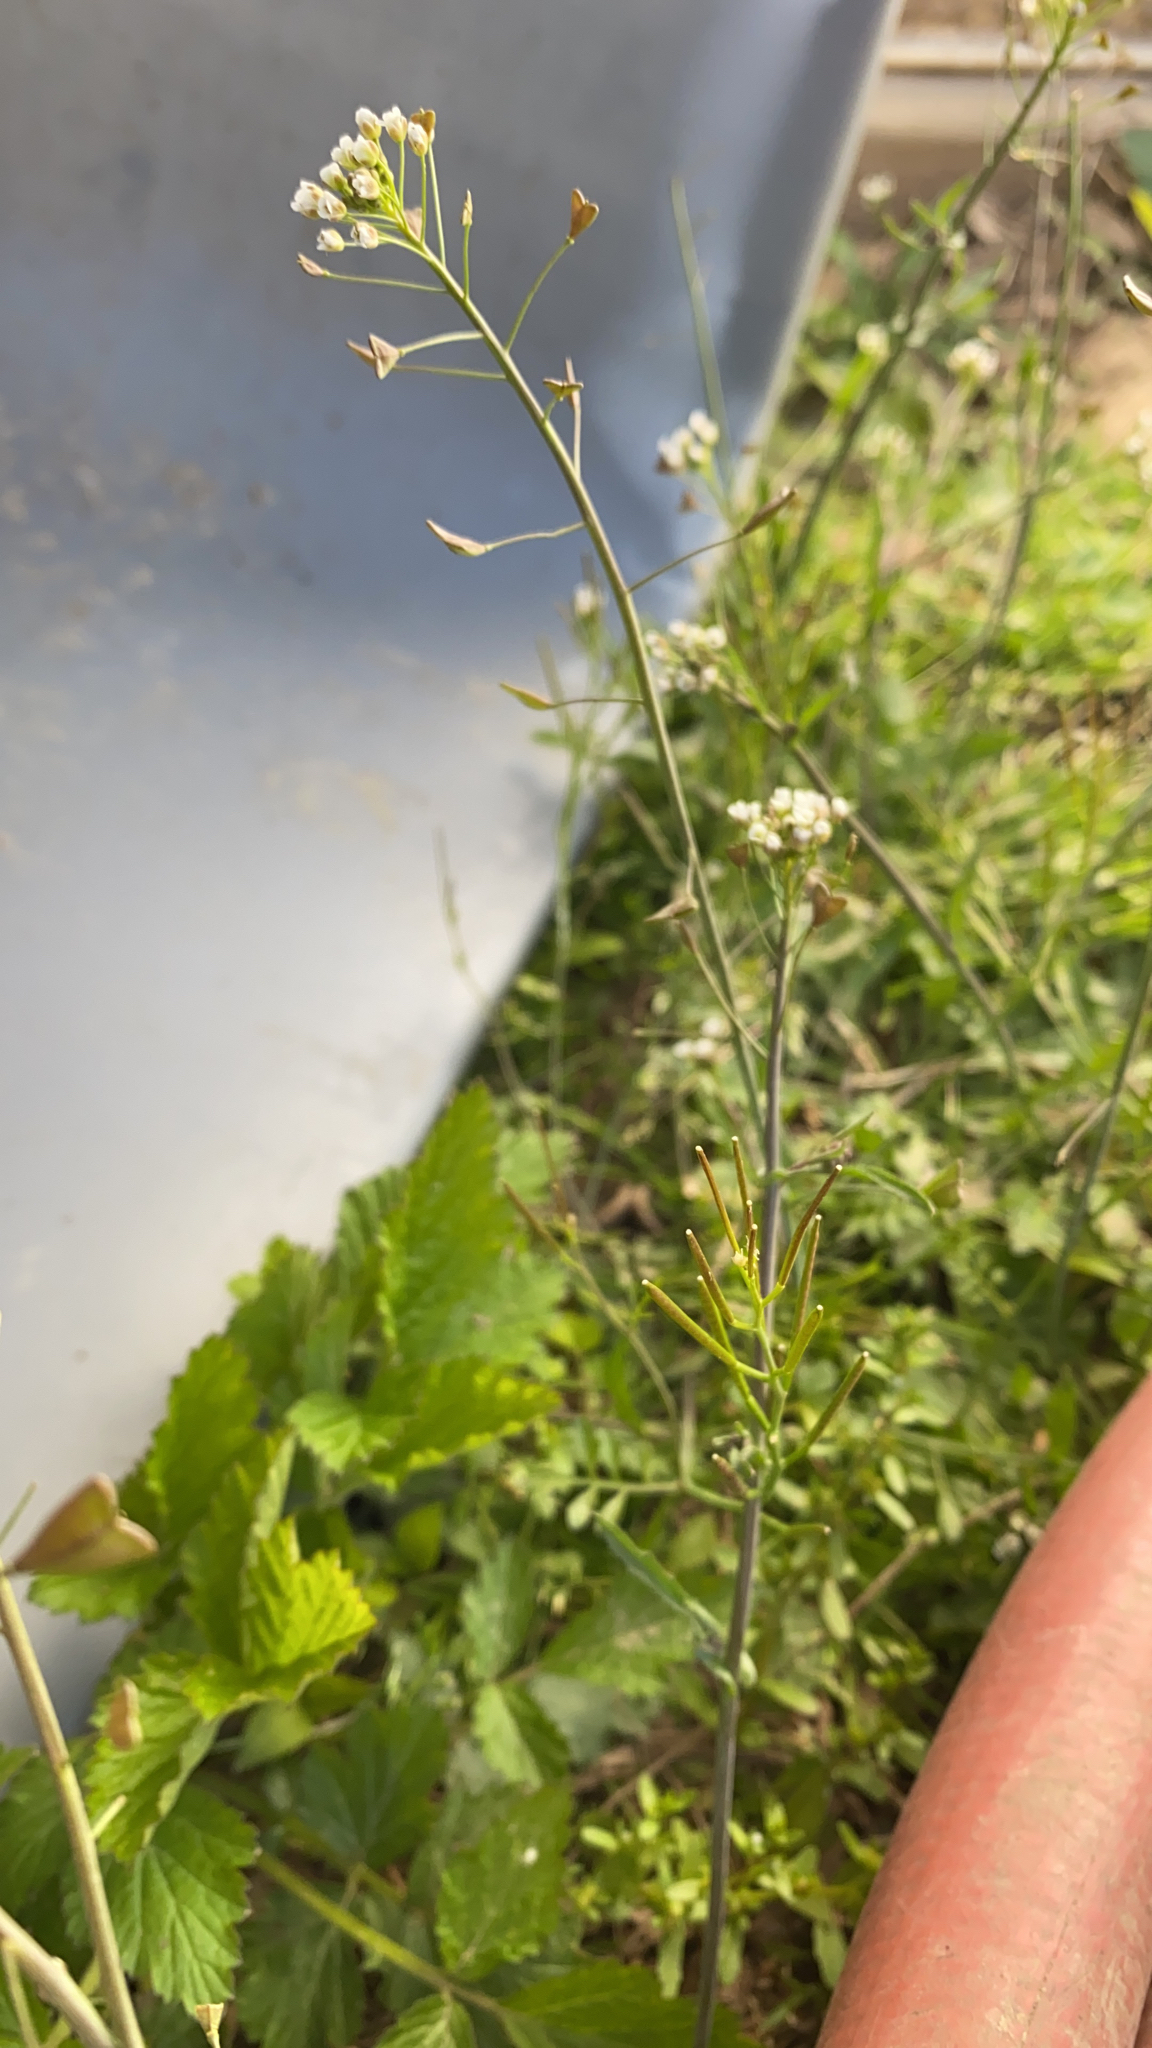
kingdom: Plantae
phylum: Tracheophyta
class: Magnoliopsida
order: Brassicales
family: Brassicaceae
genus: Capsella
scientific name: Capsella bursa-pastoris
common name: Shepherd's purse
